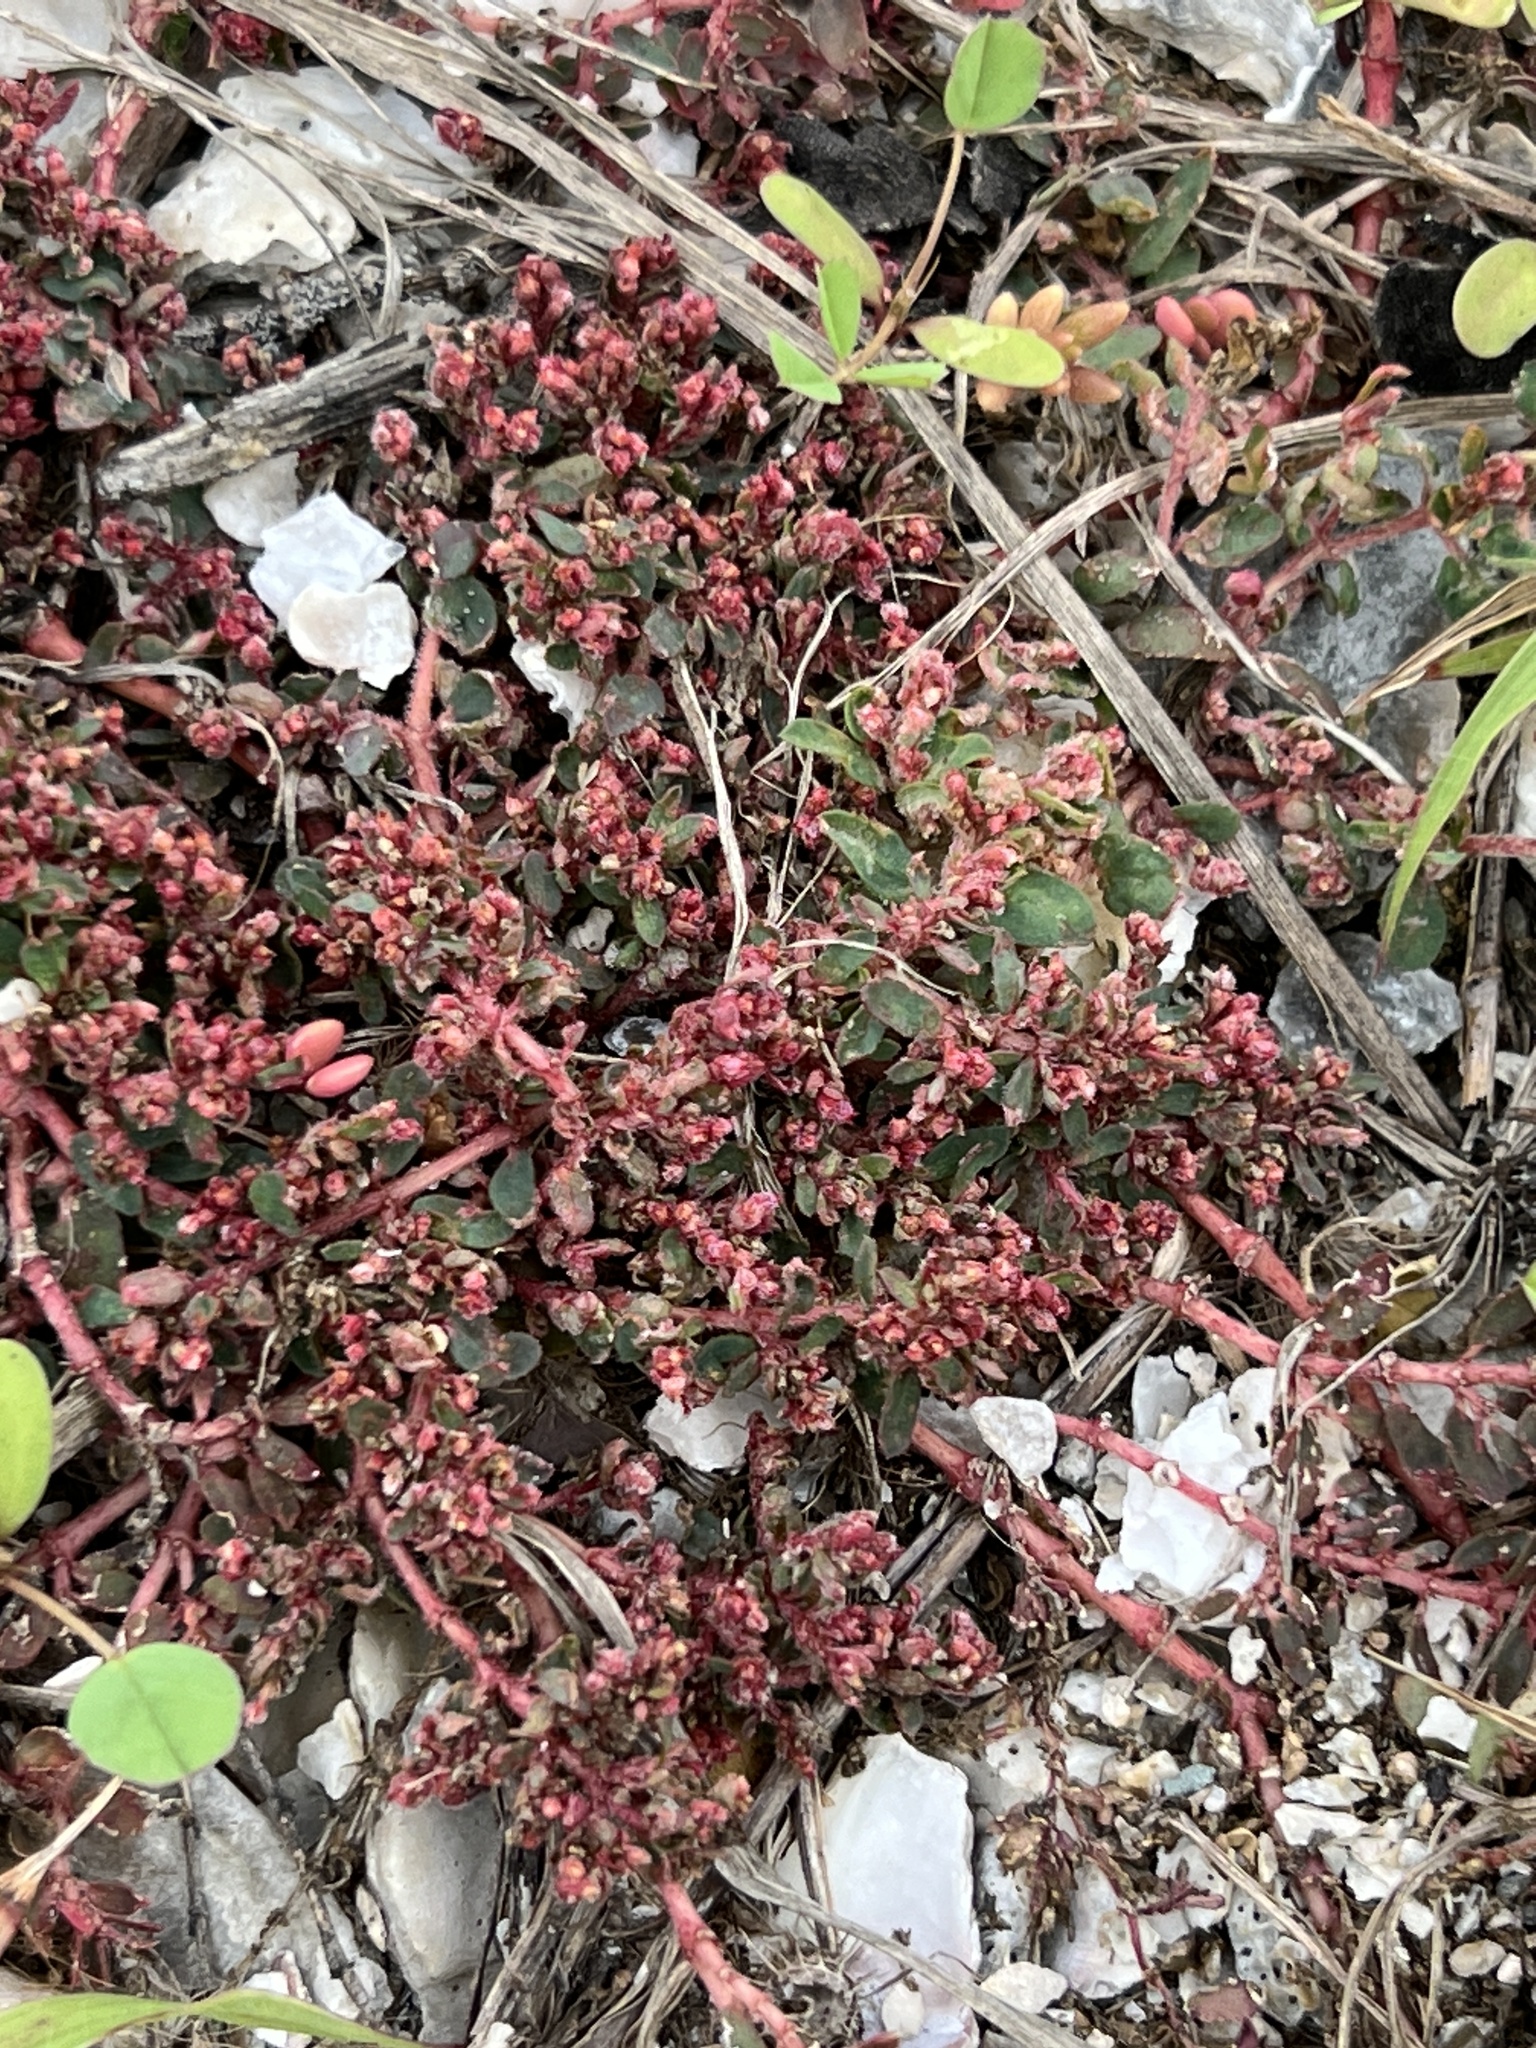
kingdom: Plantae
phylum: Tracheophyta
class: Magnoliopsida
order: Malpighiales
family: Euphorbiaceae
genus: Euphorbia
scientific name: Euphorbia maculata
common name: Spotted spurge
